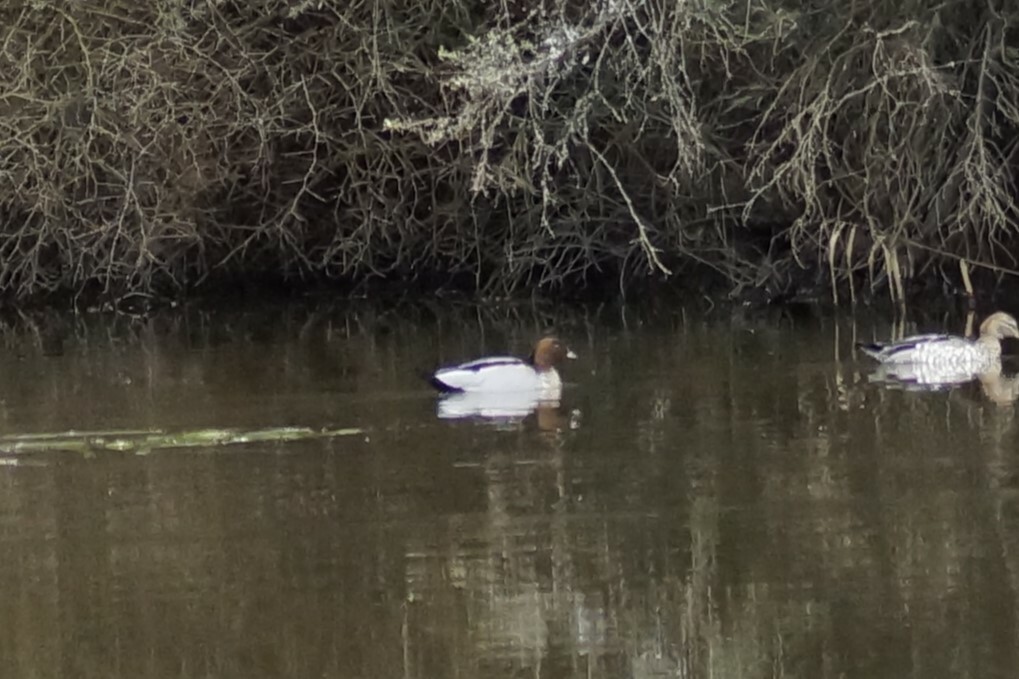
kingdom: Animalia
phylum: Chordata
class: Aves
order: Anseriformes
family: Anatidae
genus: Chenonetta
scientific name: Chenonetta jubata
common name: Maned duck
